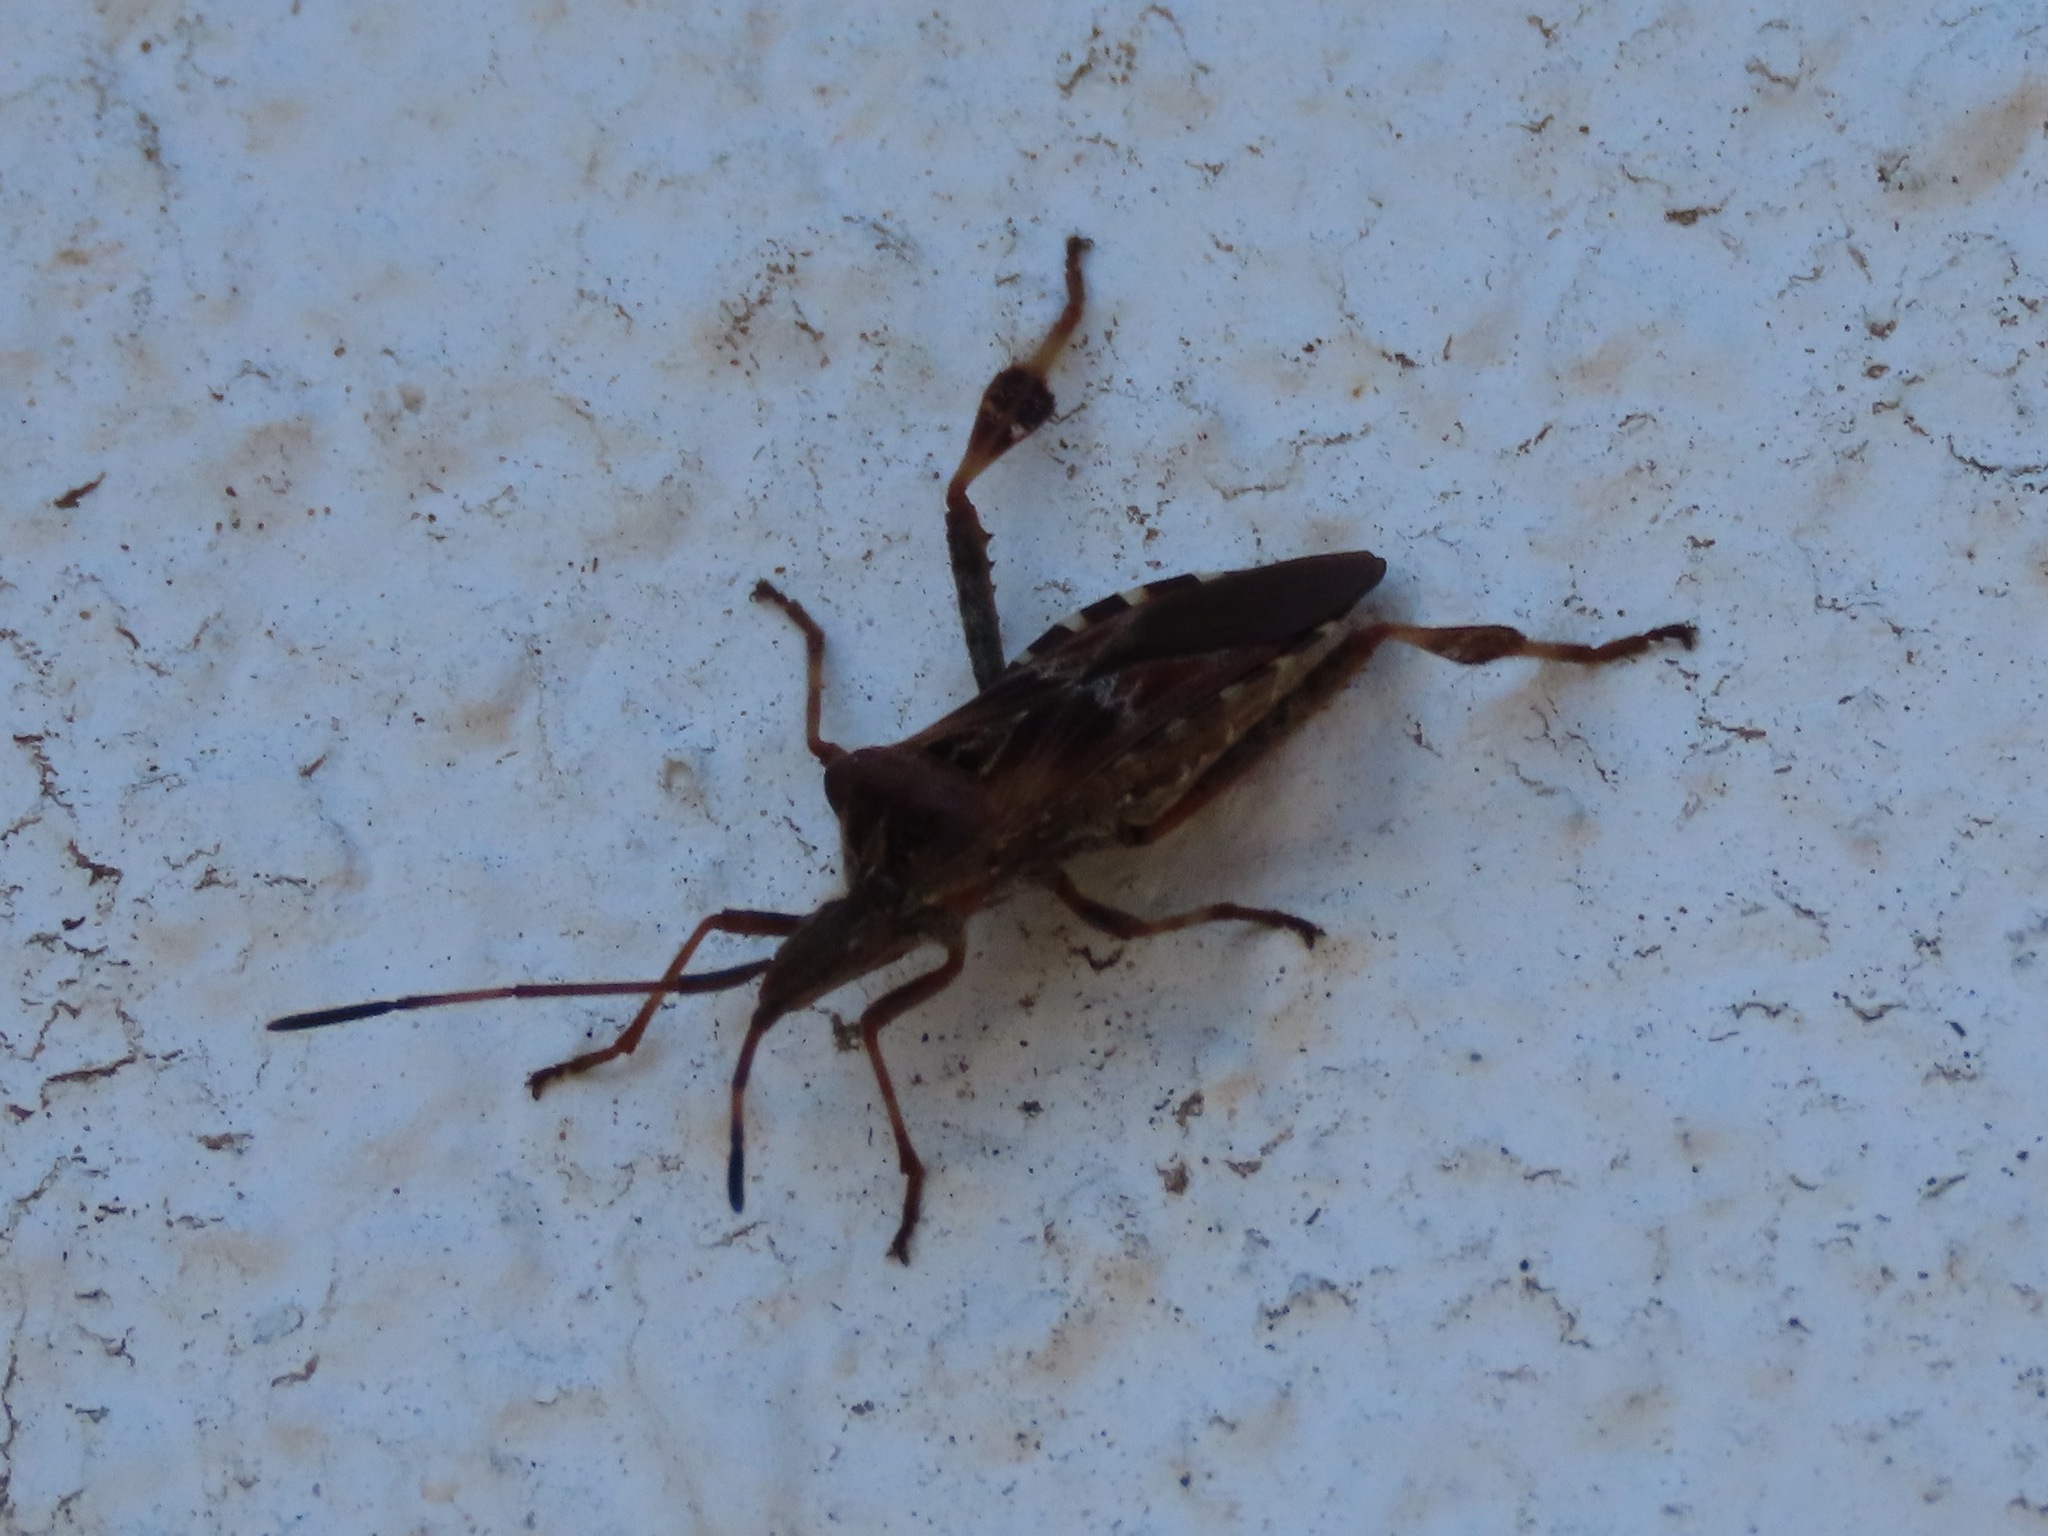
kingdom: Animalia
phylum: Arthropoda
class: Insecta
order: Hemiptera
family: Coreidae
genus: Leptoglossus
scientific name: Leptoglossus occidentalis
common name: Western conifer-seed bug
